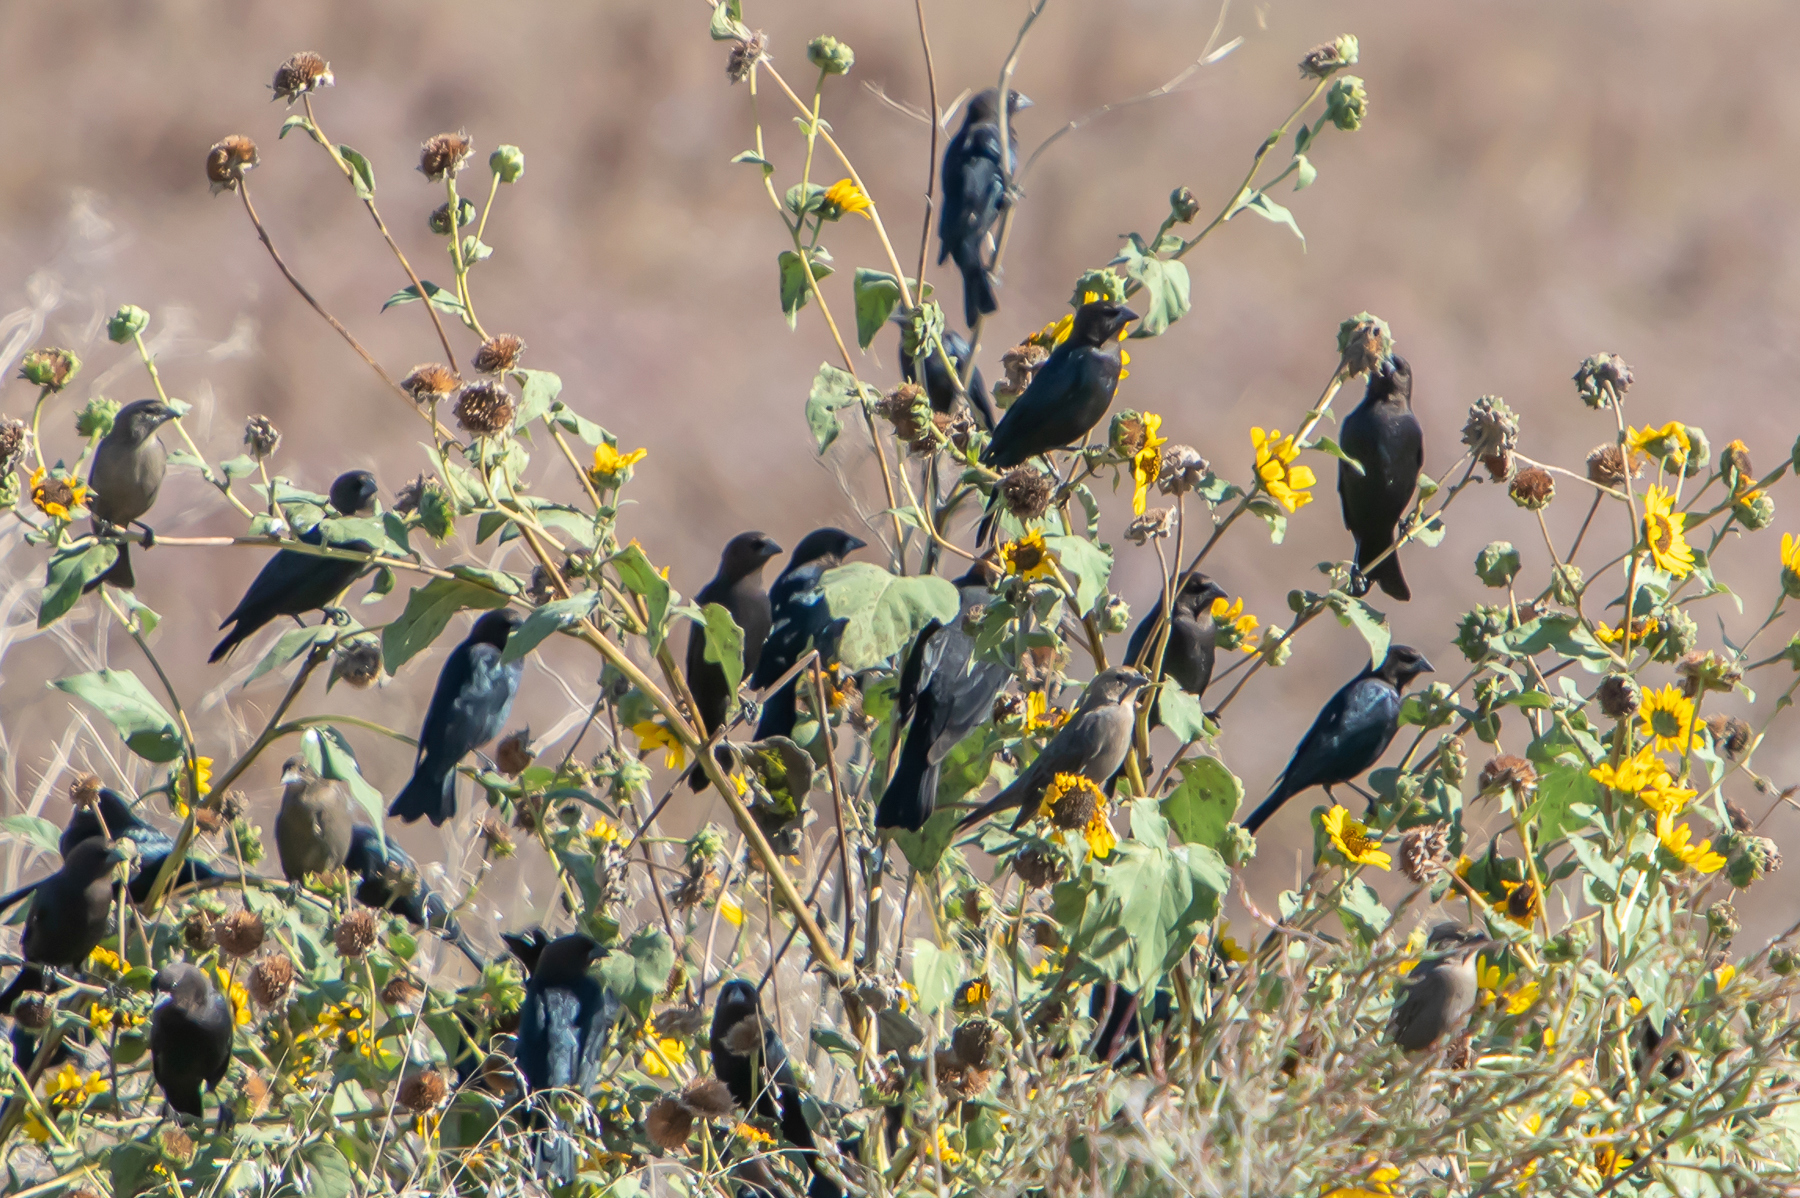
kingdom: Animalia
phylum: Chordata
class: Aves
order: Passeriformes
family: Icteridae
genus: Molothrus
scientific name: Molothrus ater
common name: Brown-headed cowbird
